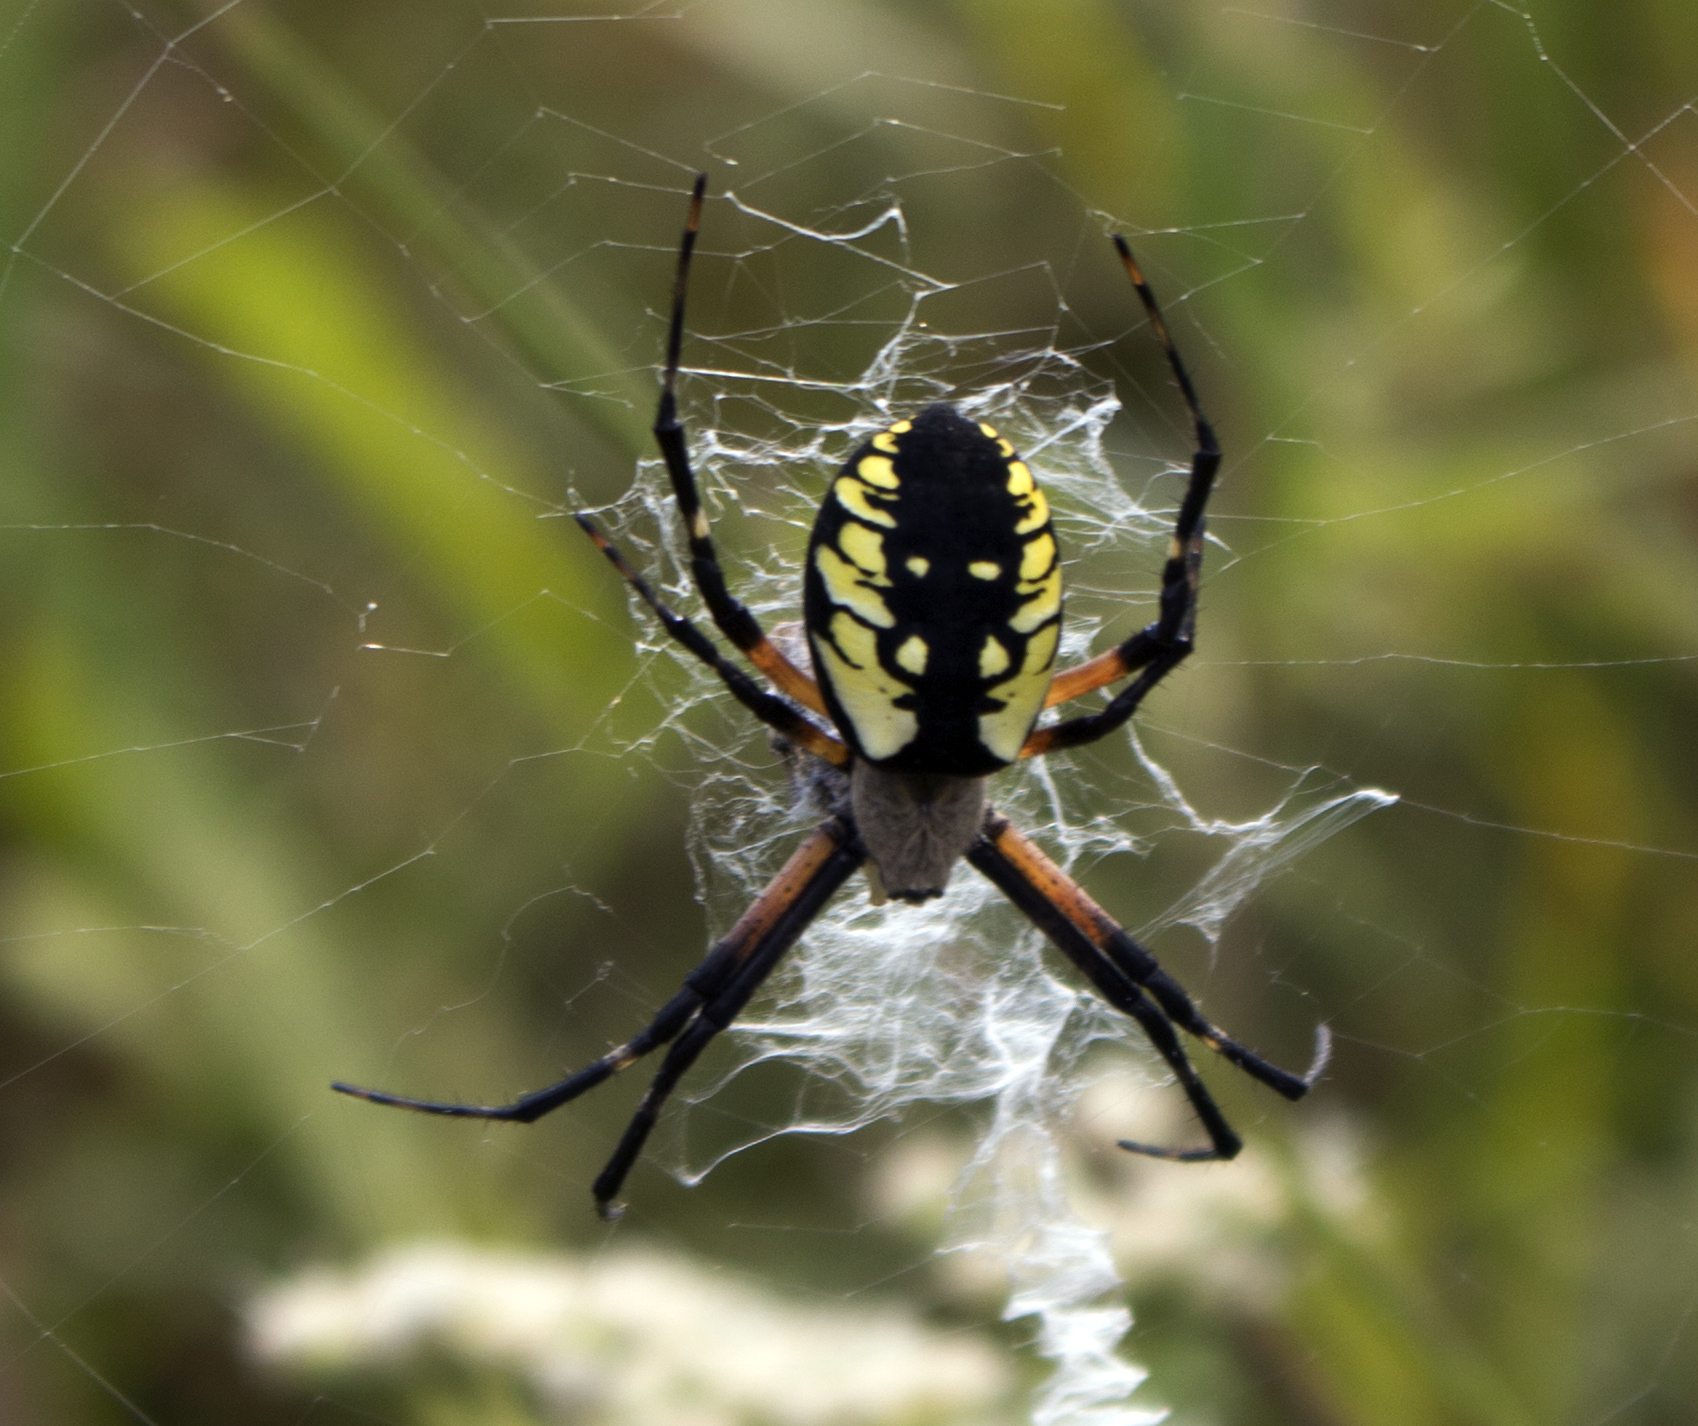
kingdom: Animalia
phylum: Arthropoda
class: Arachnida
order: Araneae
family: Araneidae
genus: Argiope
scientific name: Argiope aurantia
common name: Orb weavers
